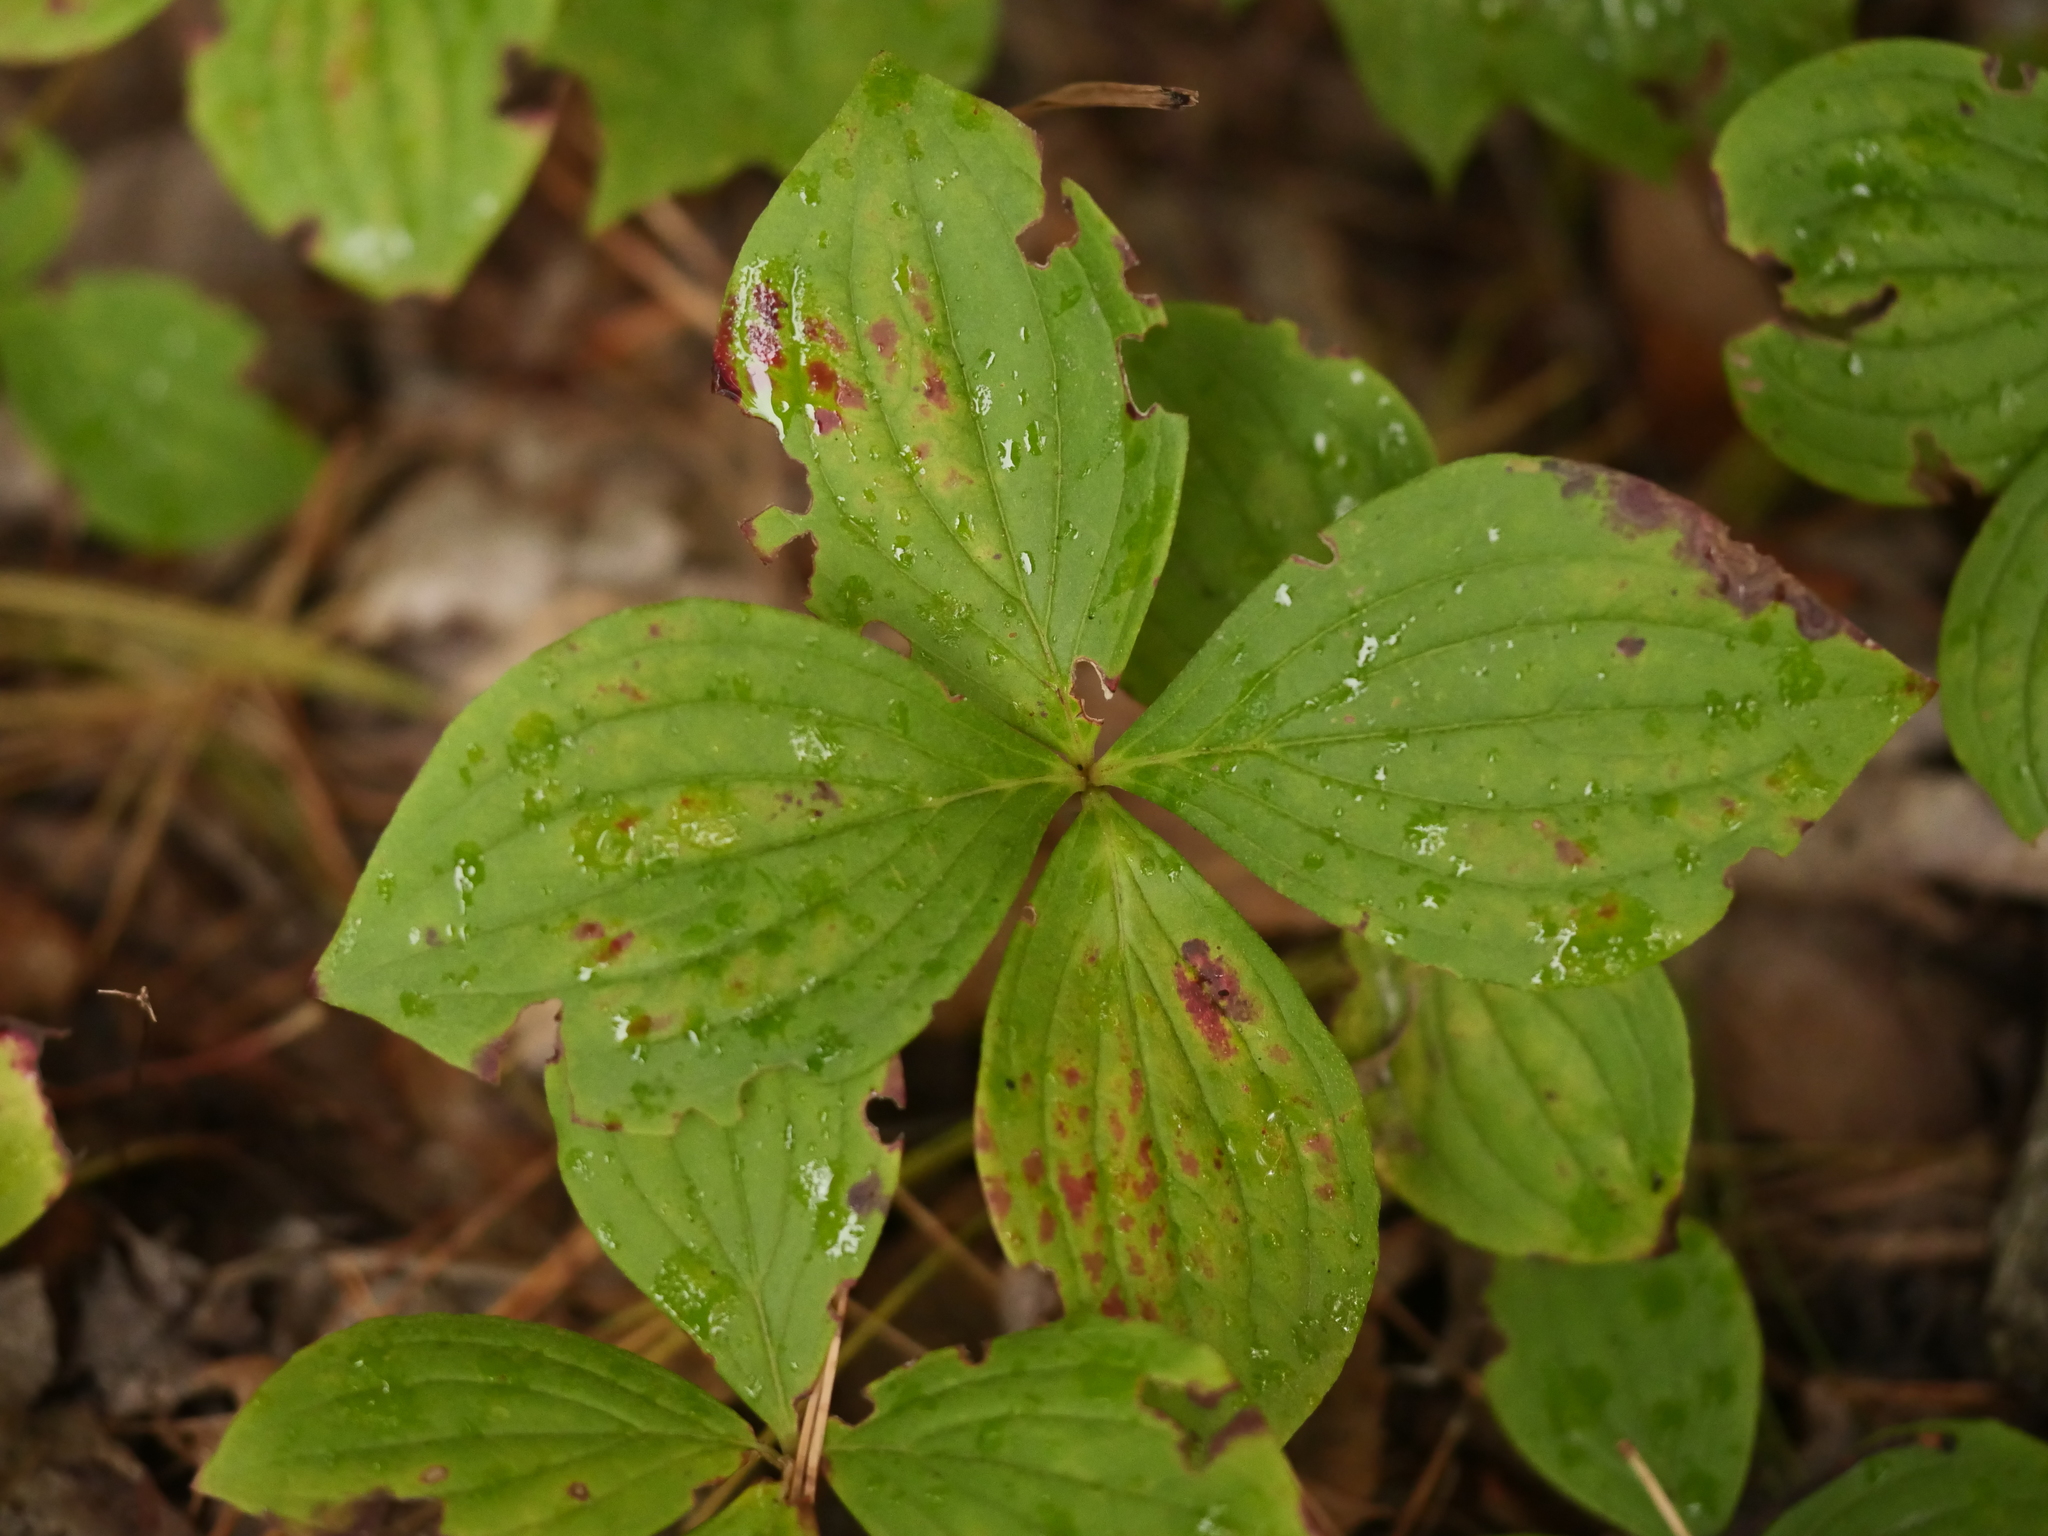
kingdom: Plantae
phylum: Tracheophyta
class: Magnoliopsida
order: Cornales
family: Cornaceae
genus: Cornus
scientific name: Cornus canadensis
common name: Creeping dogwood
